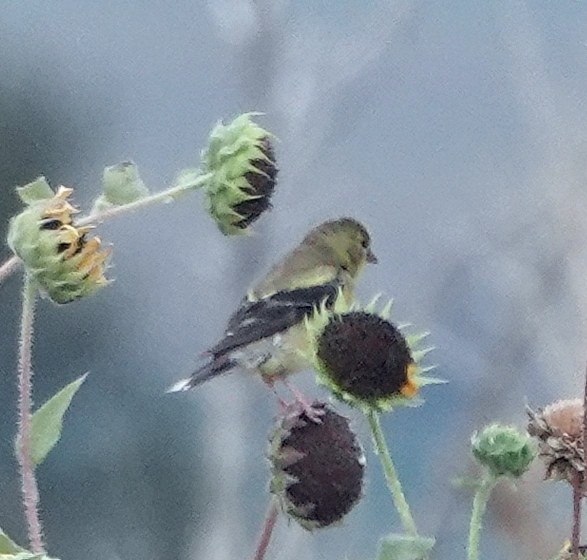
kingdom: Animalia
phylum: Chordata
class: Aves
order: Passeriformes
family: Fringillidae
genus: Spinus
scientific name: Spinus psaltria
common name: Lesser goldfinch
